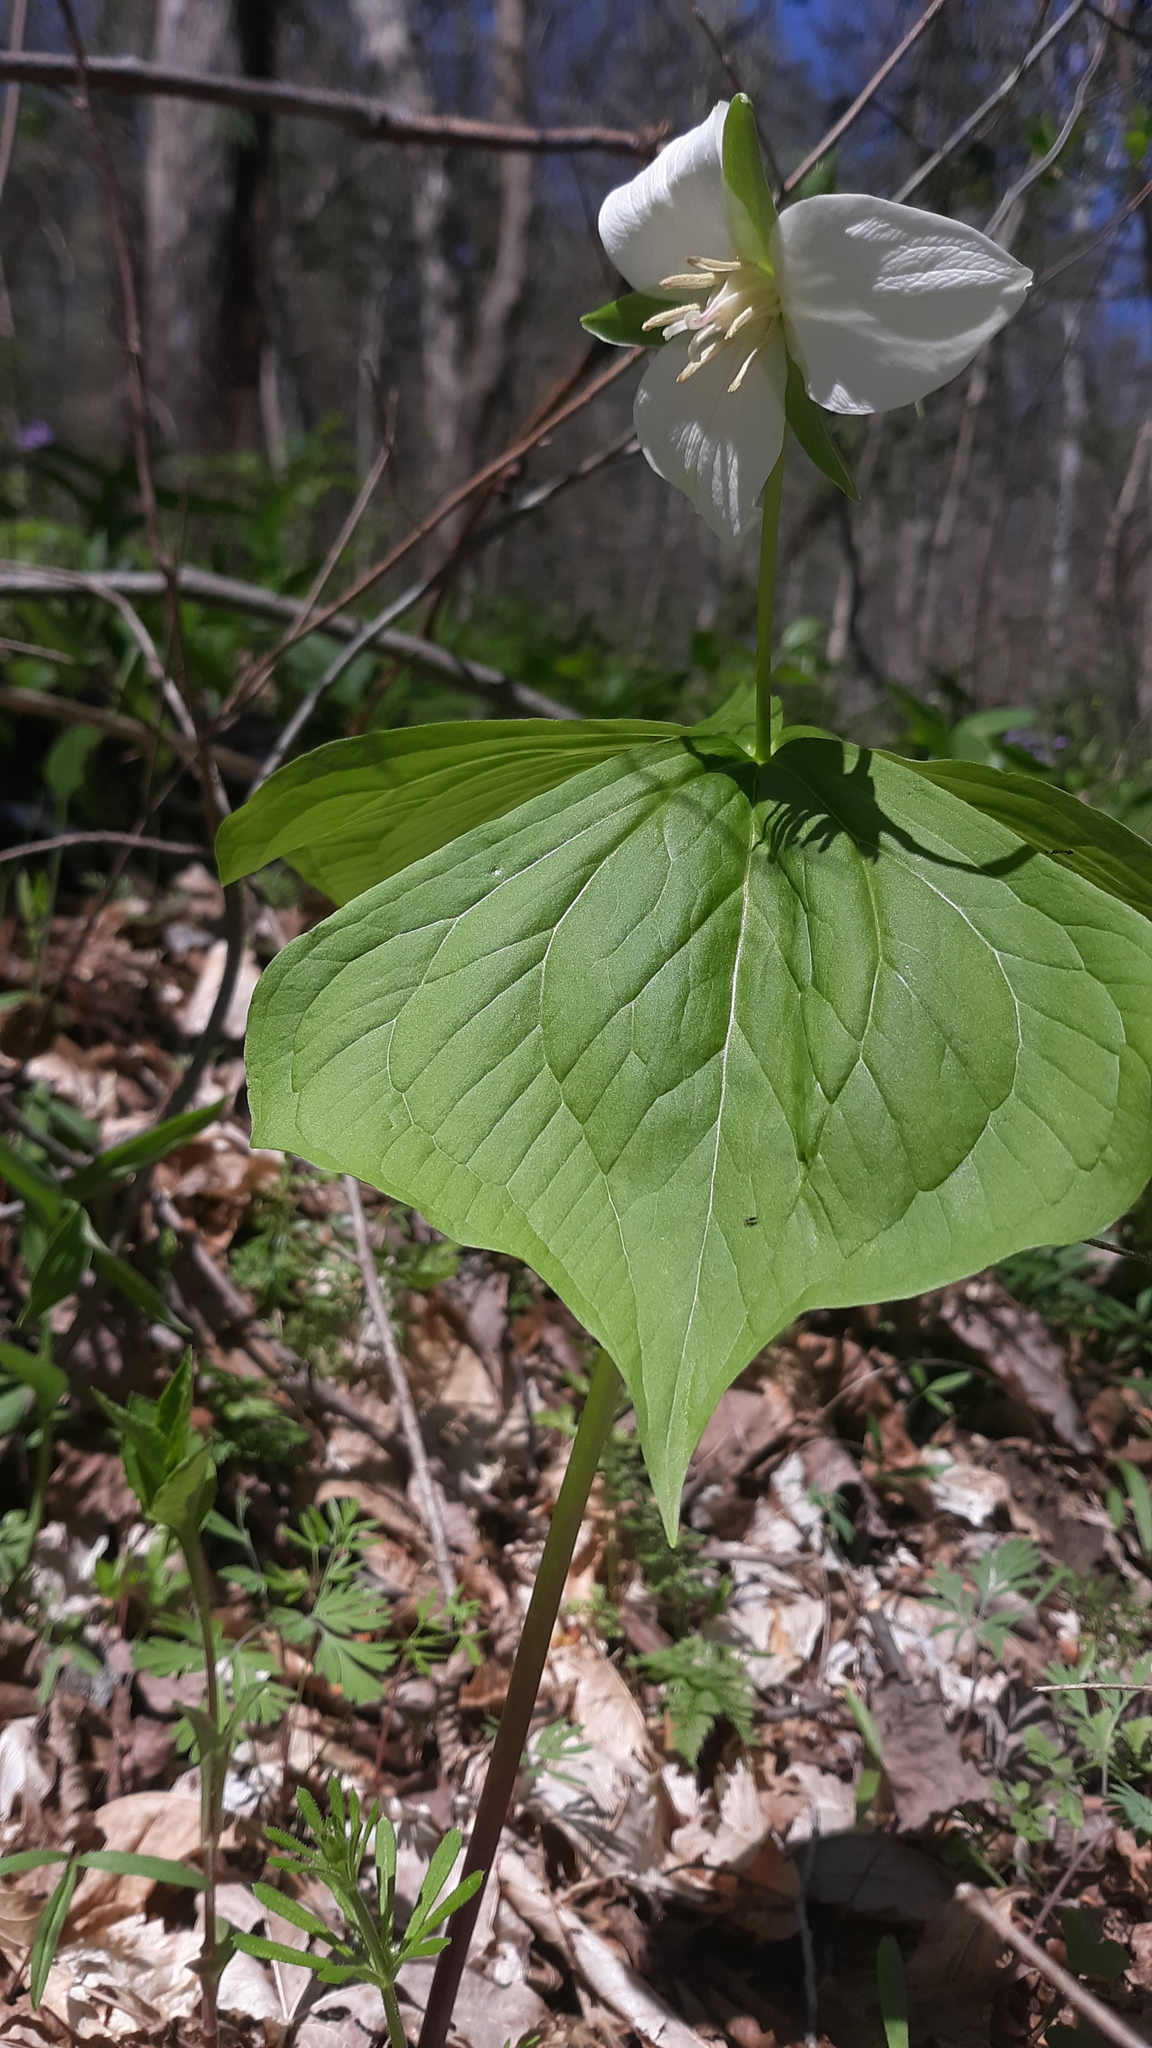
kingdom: Plantae
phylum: Tracheophyta
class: Liliopsida
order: Liliales
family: Melanthiaceae
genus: Trillium
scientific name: Trillium flexipes
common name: Drooping trillium
